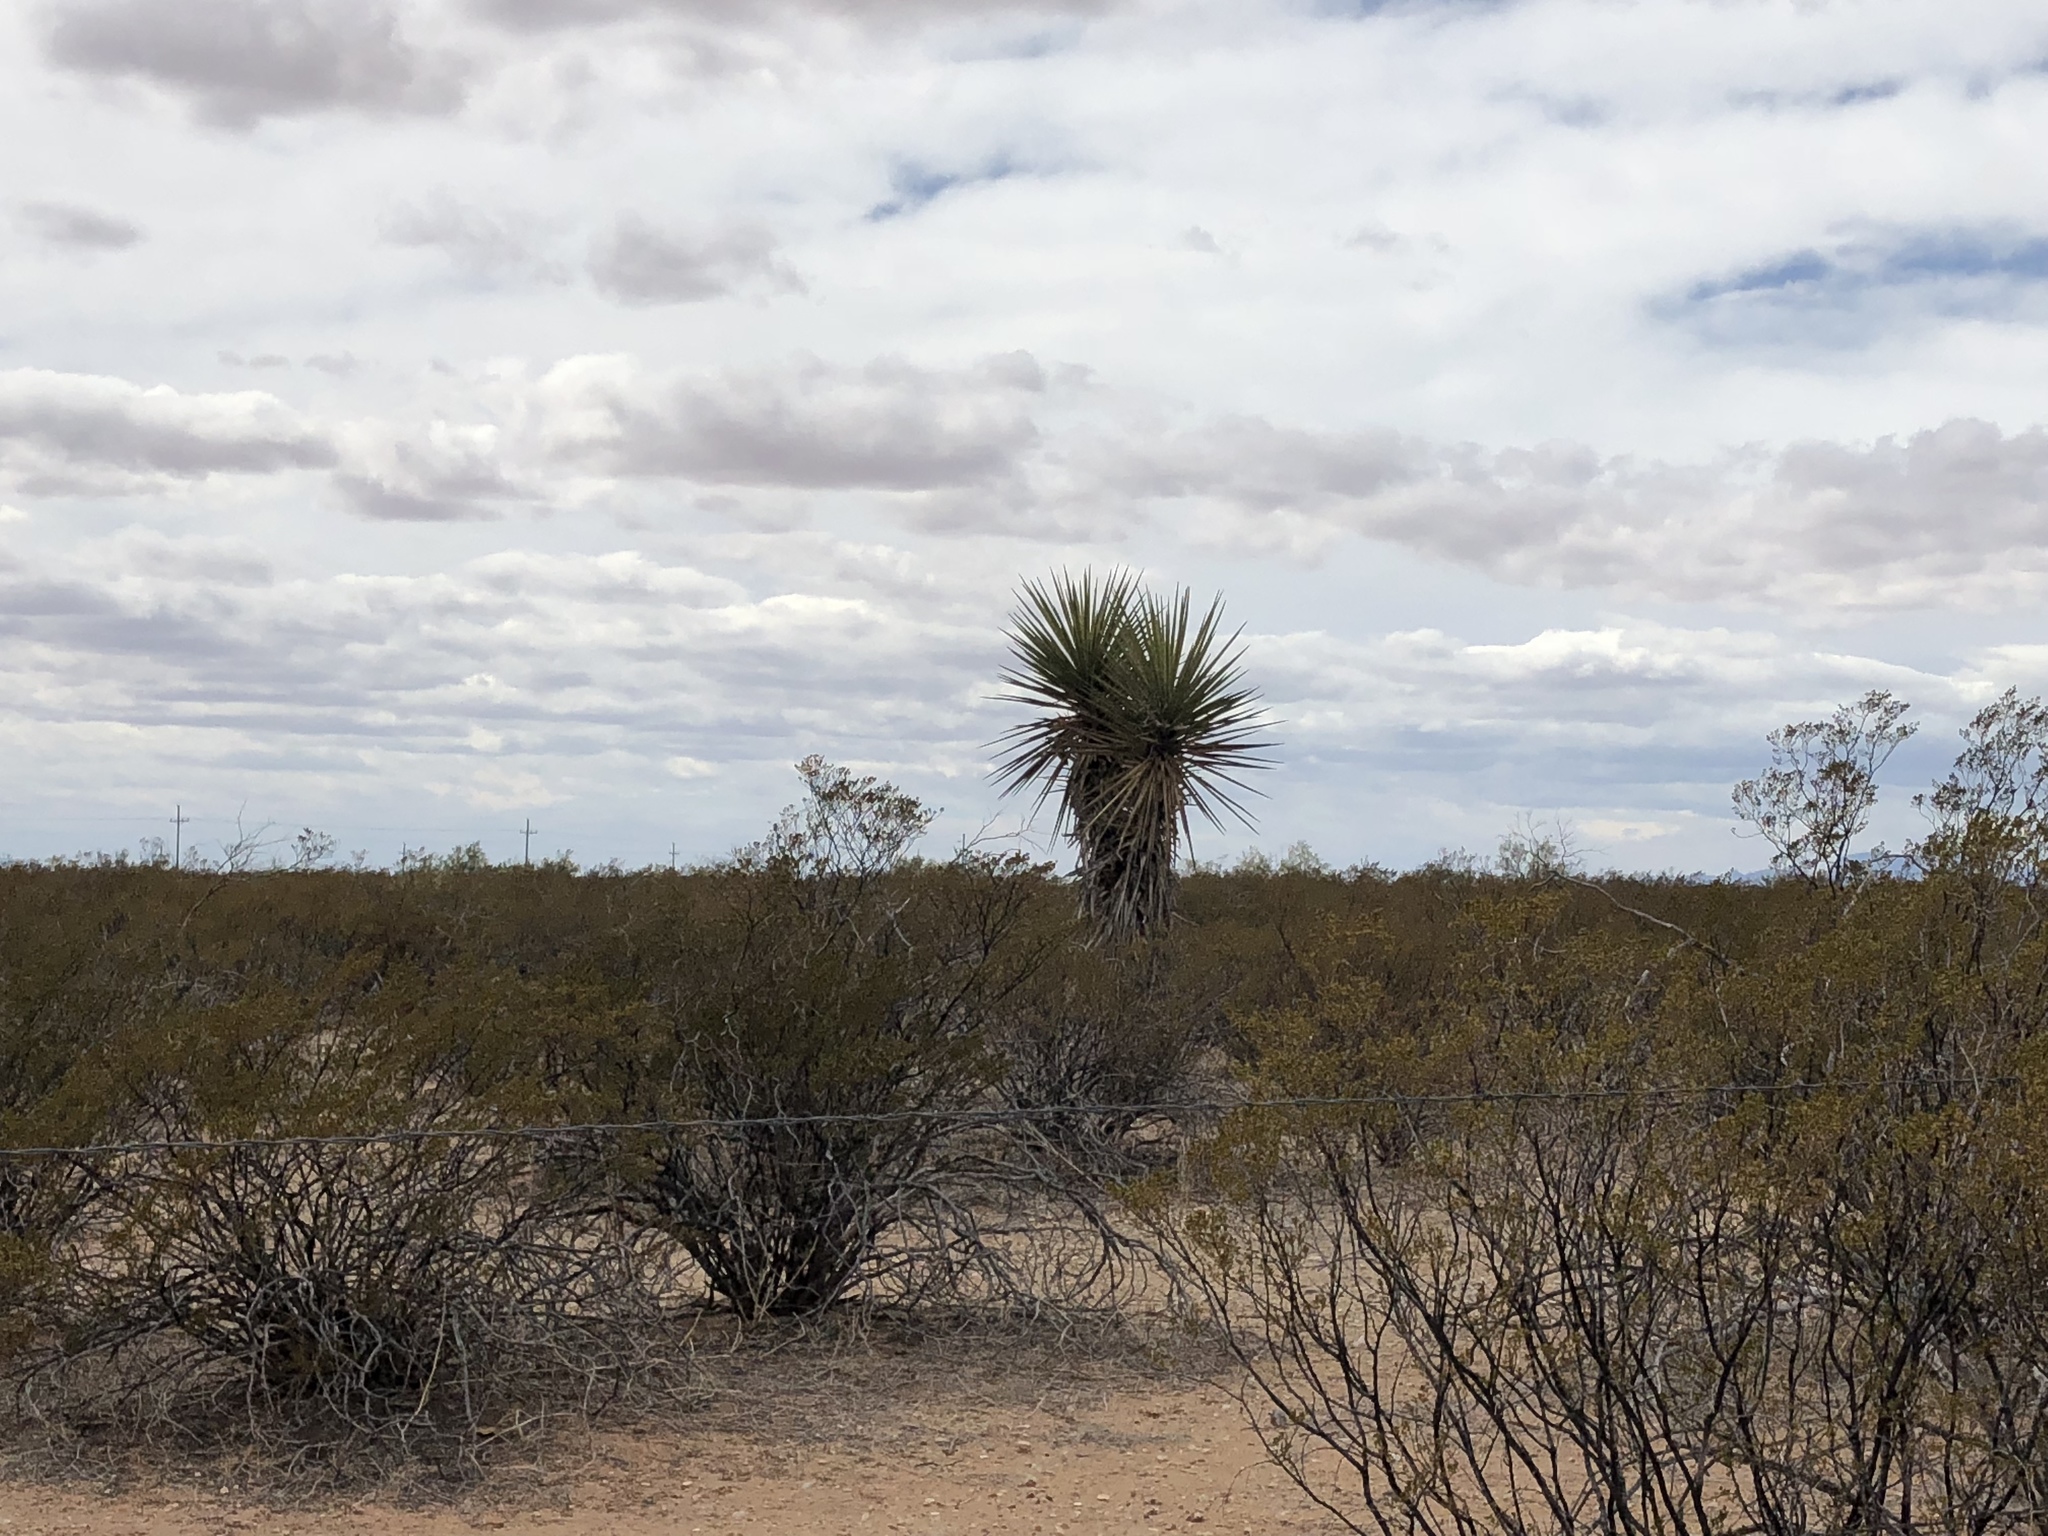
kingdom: Plantae
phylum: Tracheophyta
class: Liliopsida
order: Asparagales
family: Asparagaceae
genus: Yucca
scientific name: Yucca treculiana
